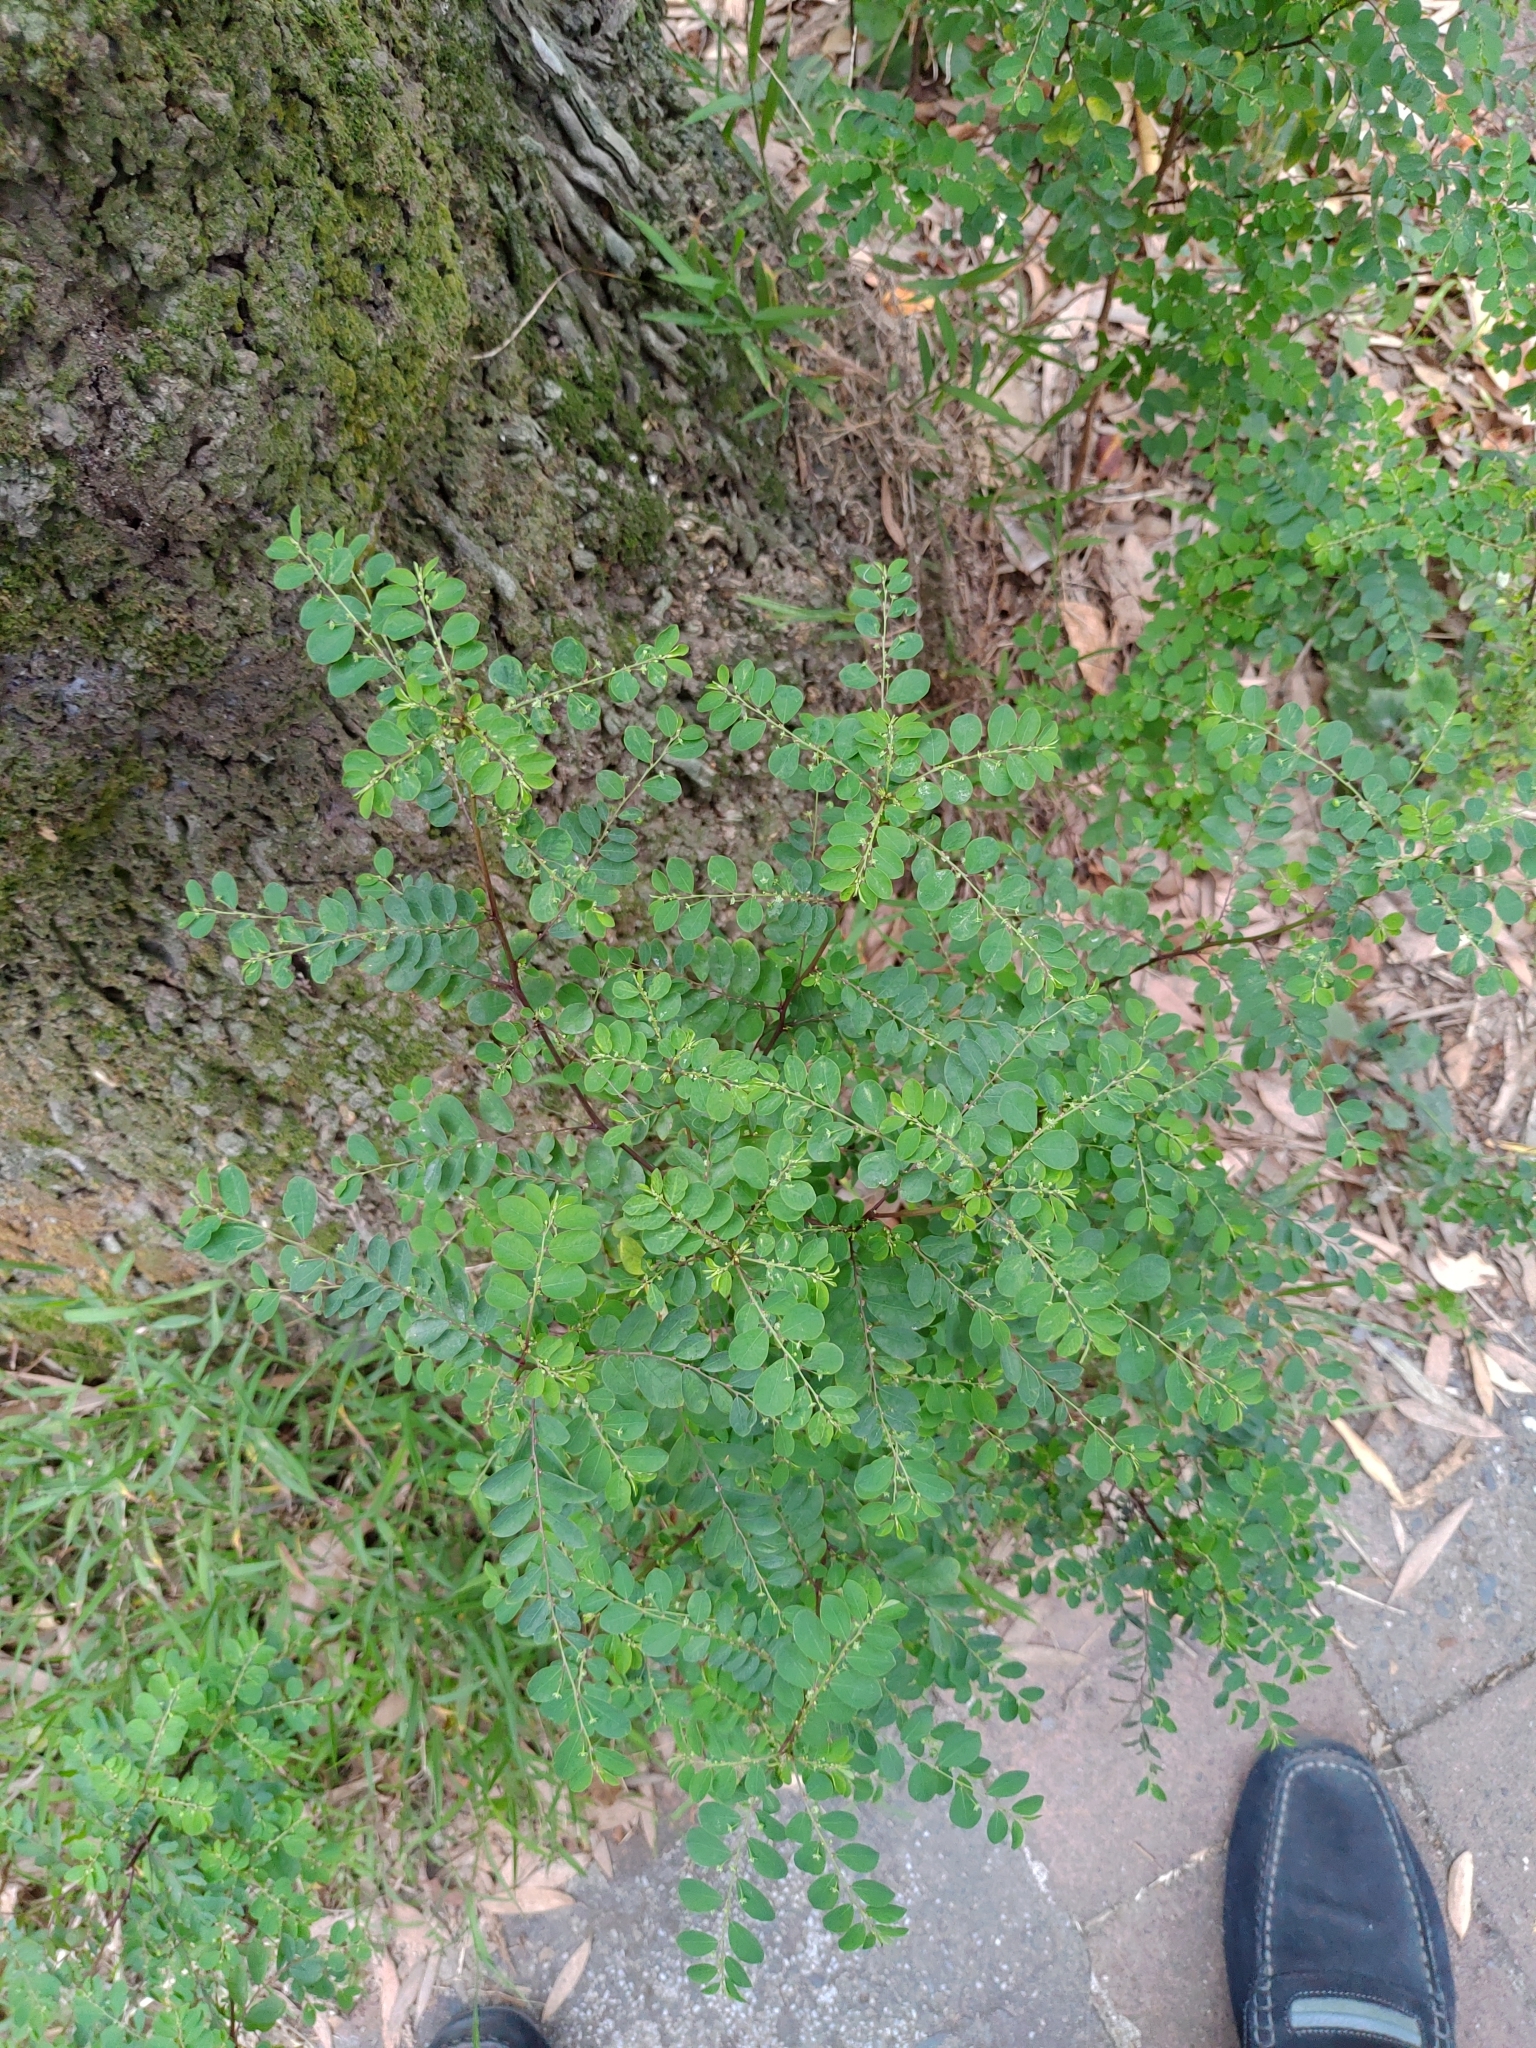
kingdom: Plantae
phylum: Tracheophyta
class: Magnoliopsida
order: Malpighiales
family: Phyllanthaceae
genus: Phyllanthus
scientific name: Phyllanthus tenellus
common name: Mascarene island leaf-flower
